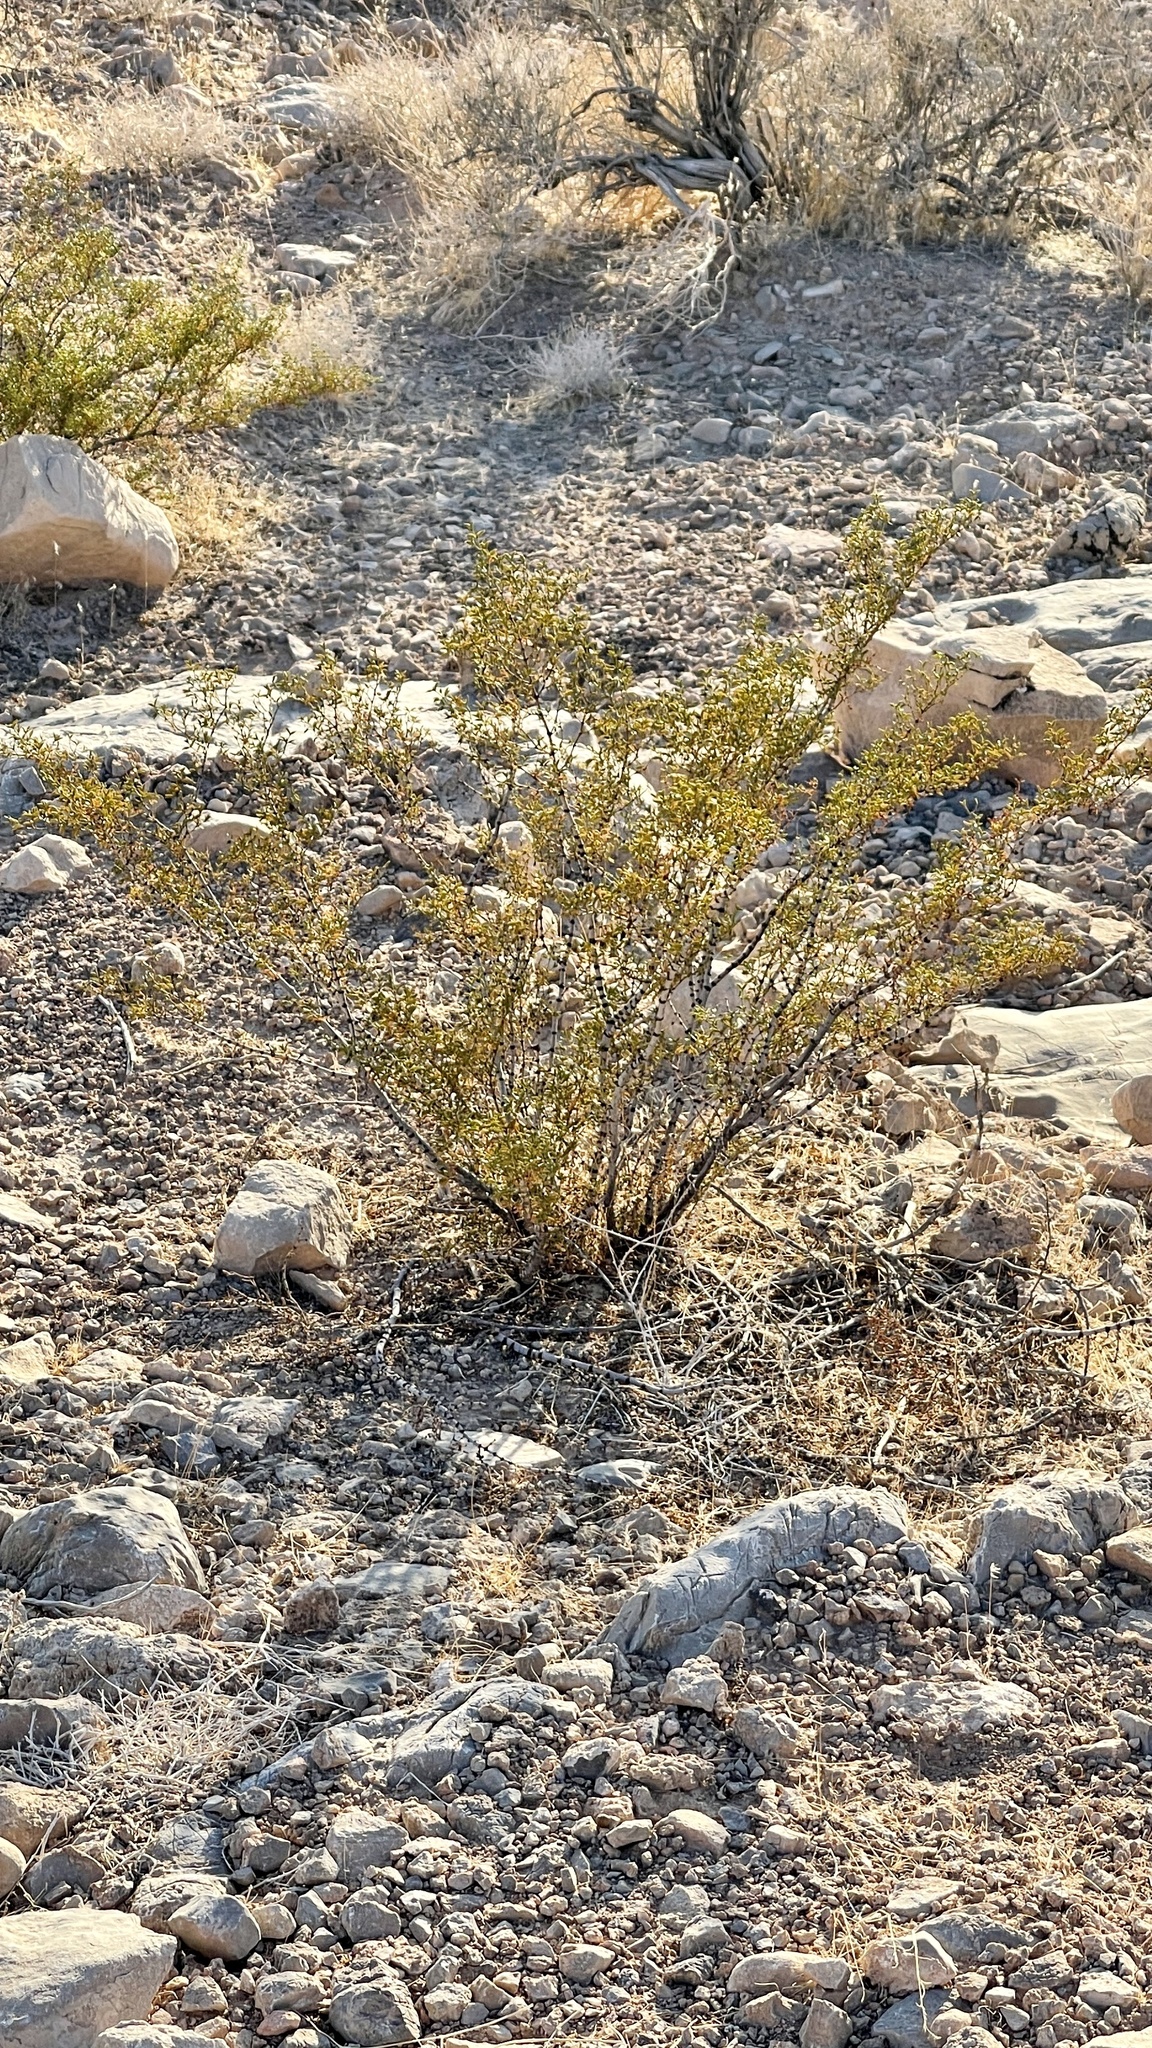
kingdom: Plantae
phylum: Tracheophyta
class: Magnoliopsida
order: Zygophyllales
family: Zygophyllaceae
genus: Larrea
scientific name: Larrea tridentata
